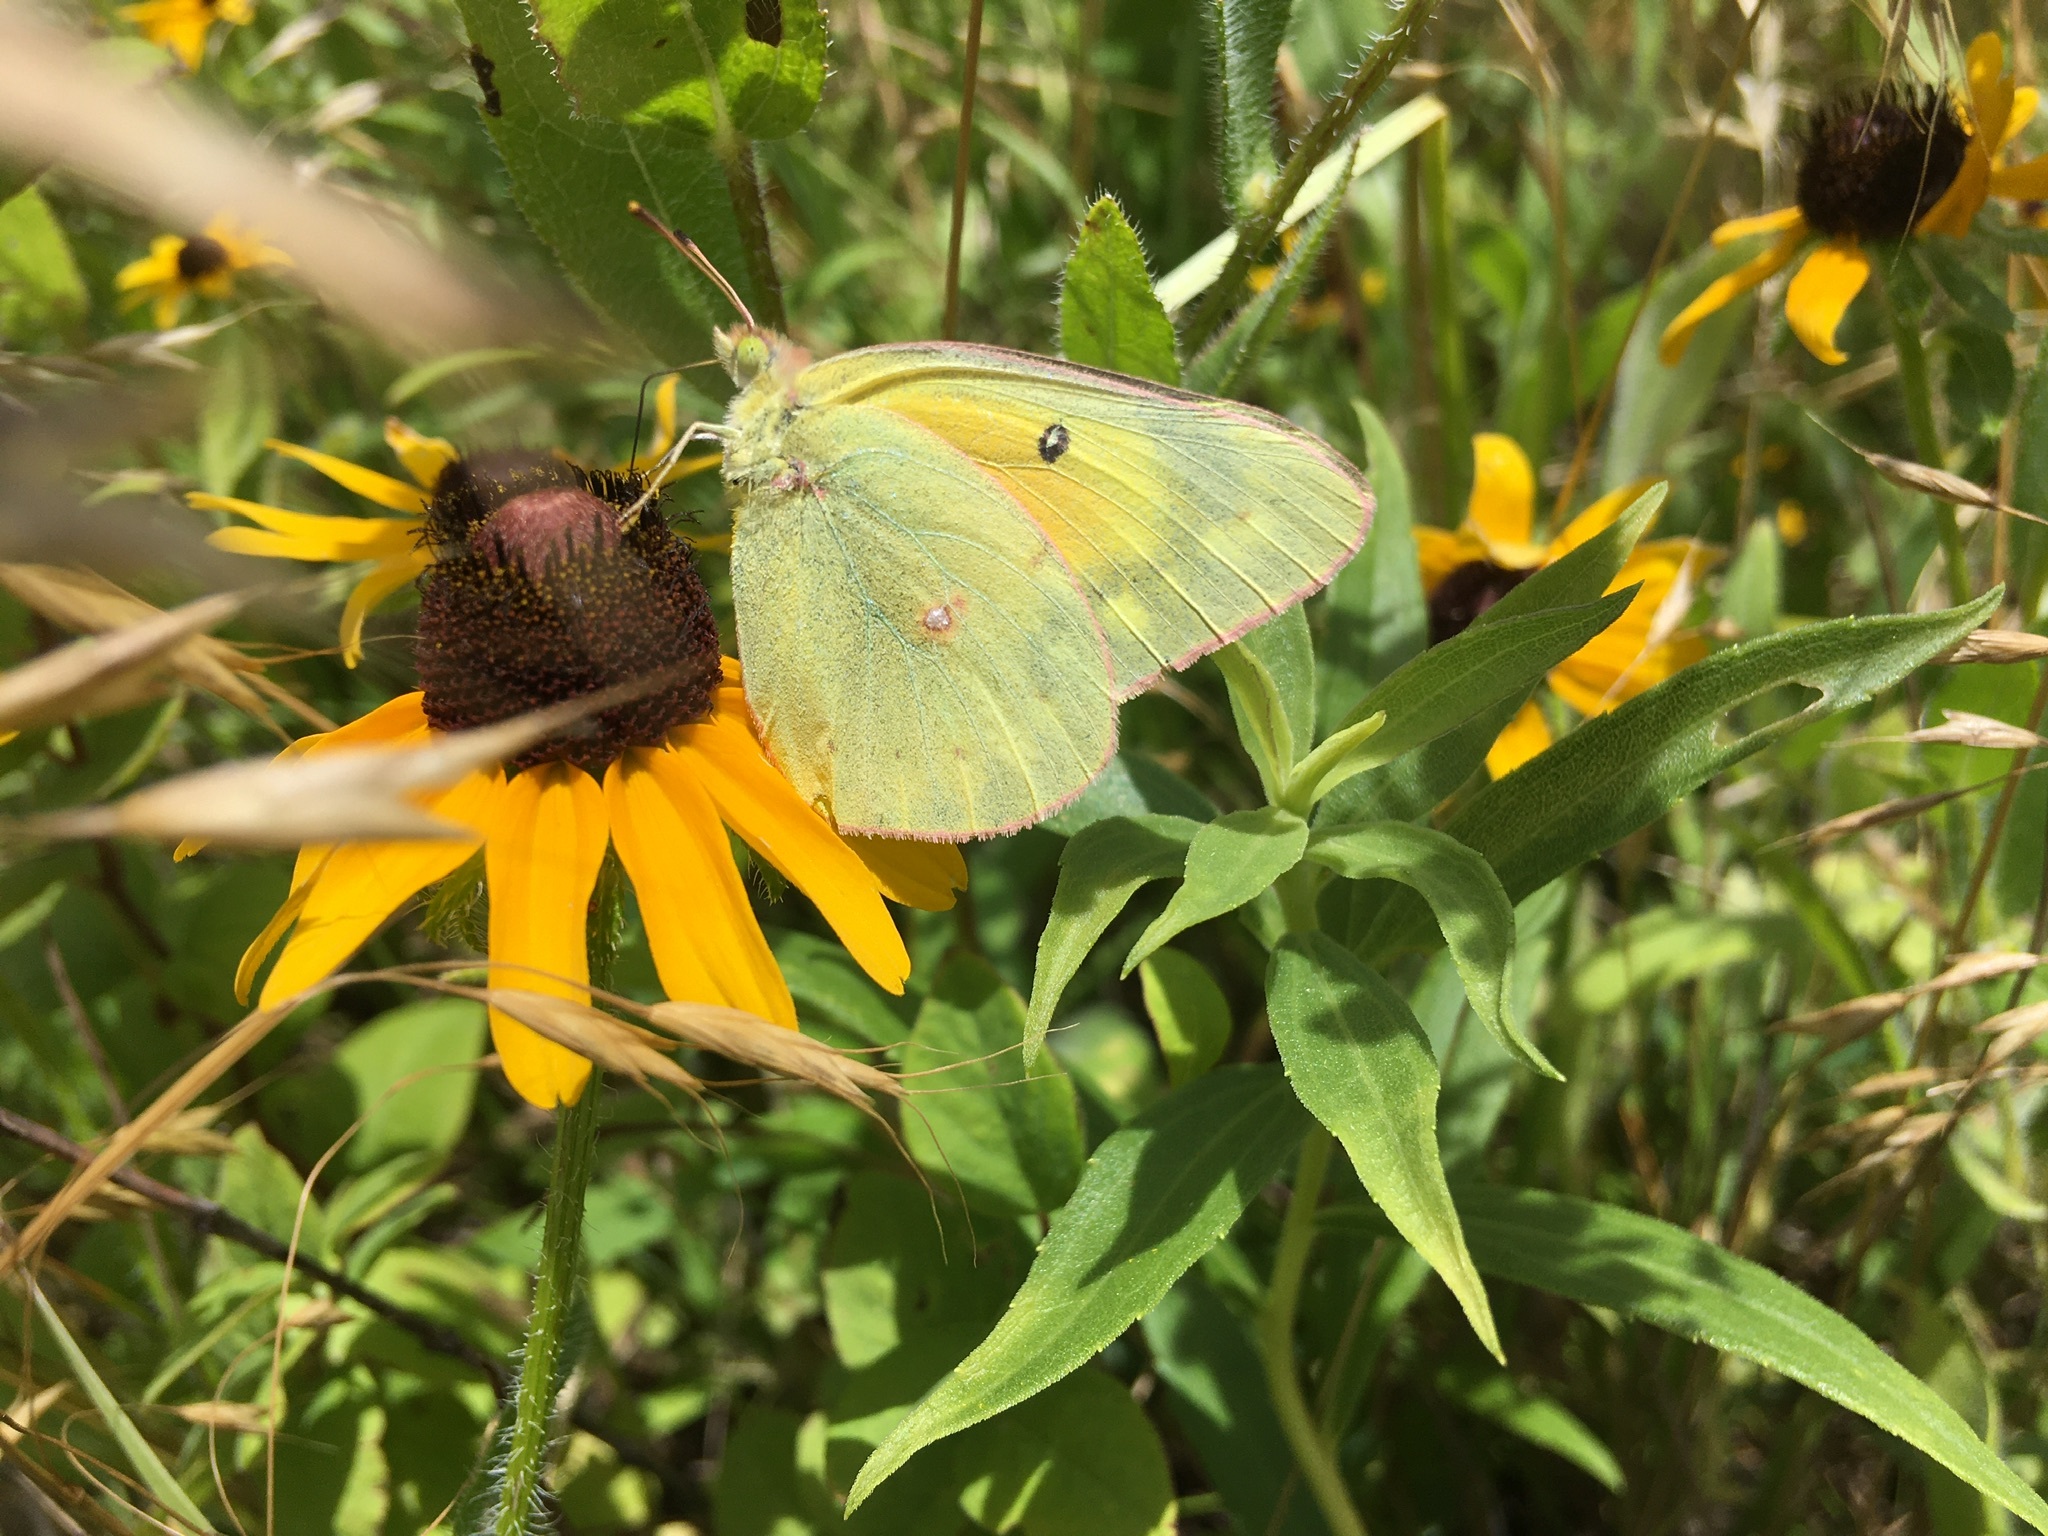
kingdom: Animalia
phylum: Arthropoda
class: Insecta
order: Lepidoptera
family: Pieridae
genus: Colias
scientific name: Colias eurytheme
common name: Alfalfa butterfly
